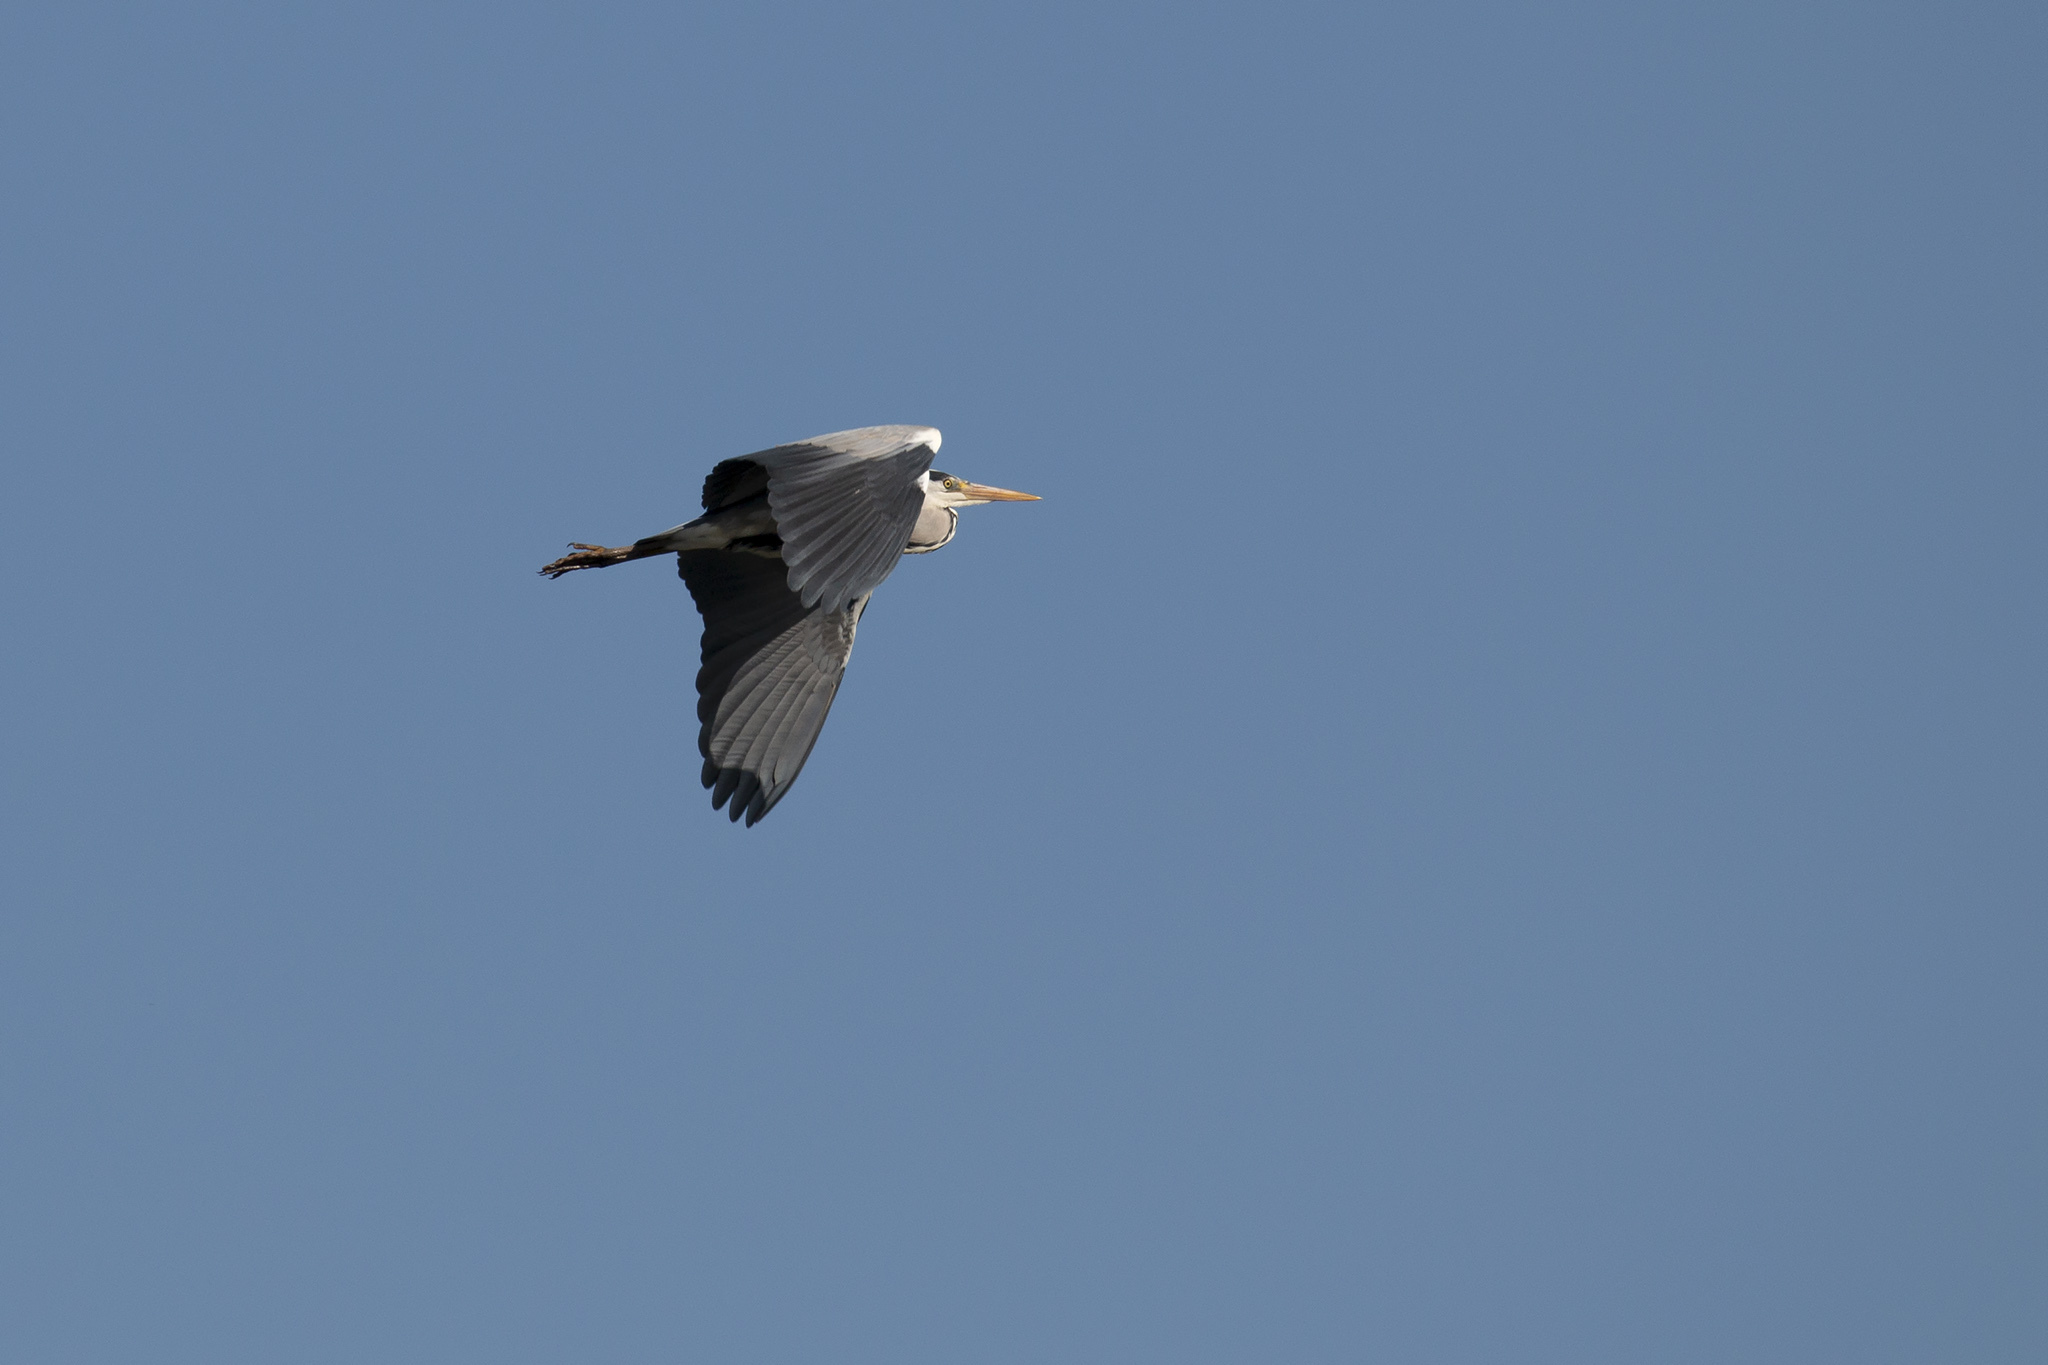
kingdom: Animalia
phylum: Chordata
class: Aves
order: Pelecaniformes
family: Ardeidae
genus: Ardea
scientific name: Ardea cinerea
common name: Grey heron
